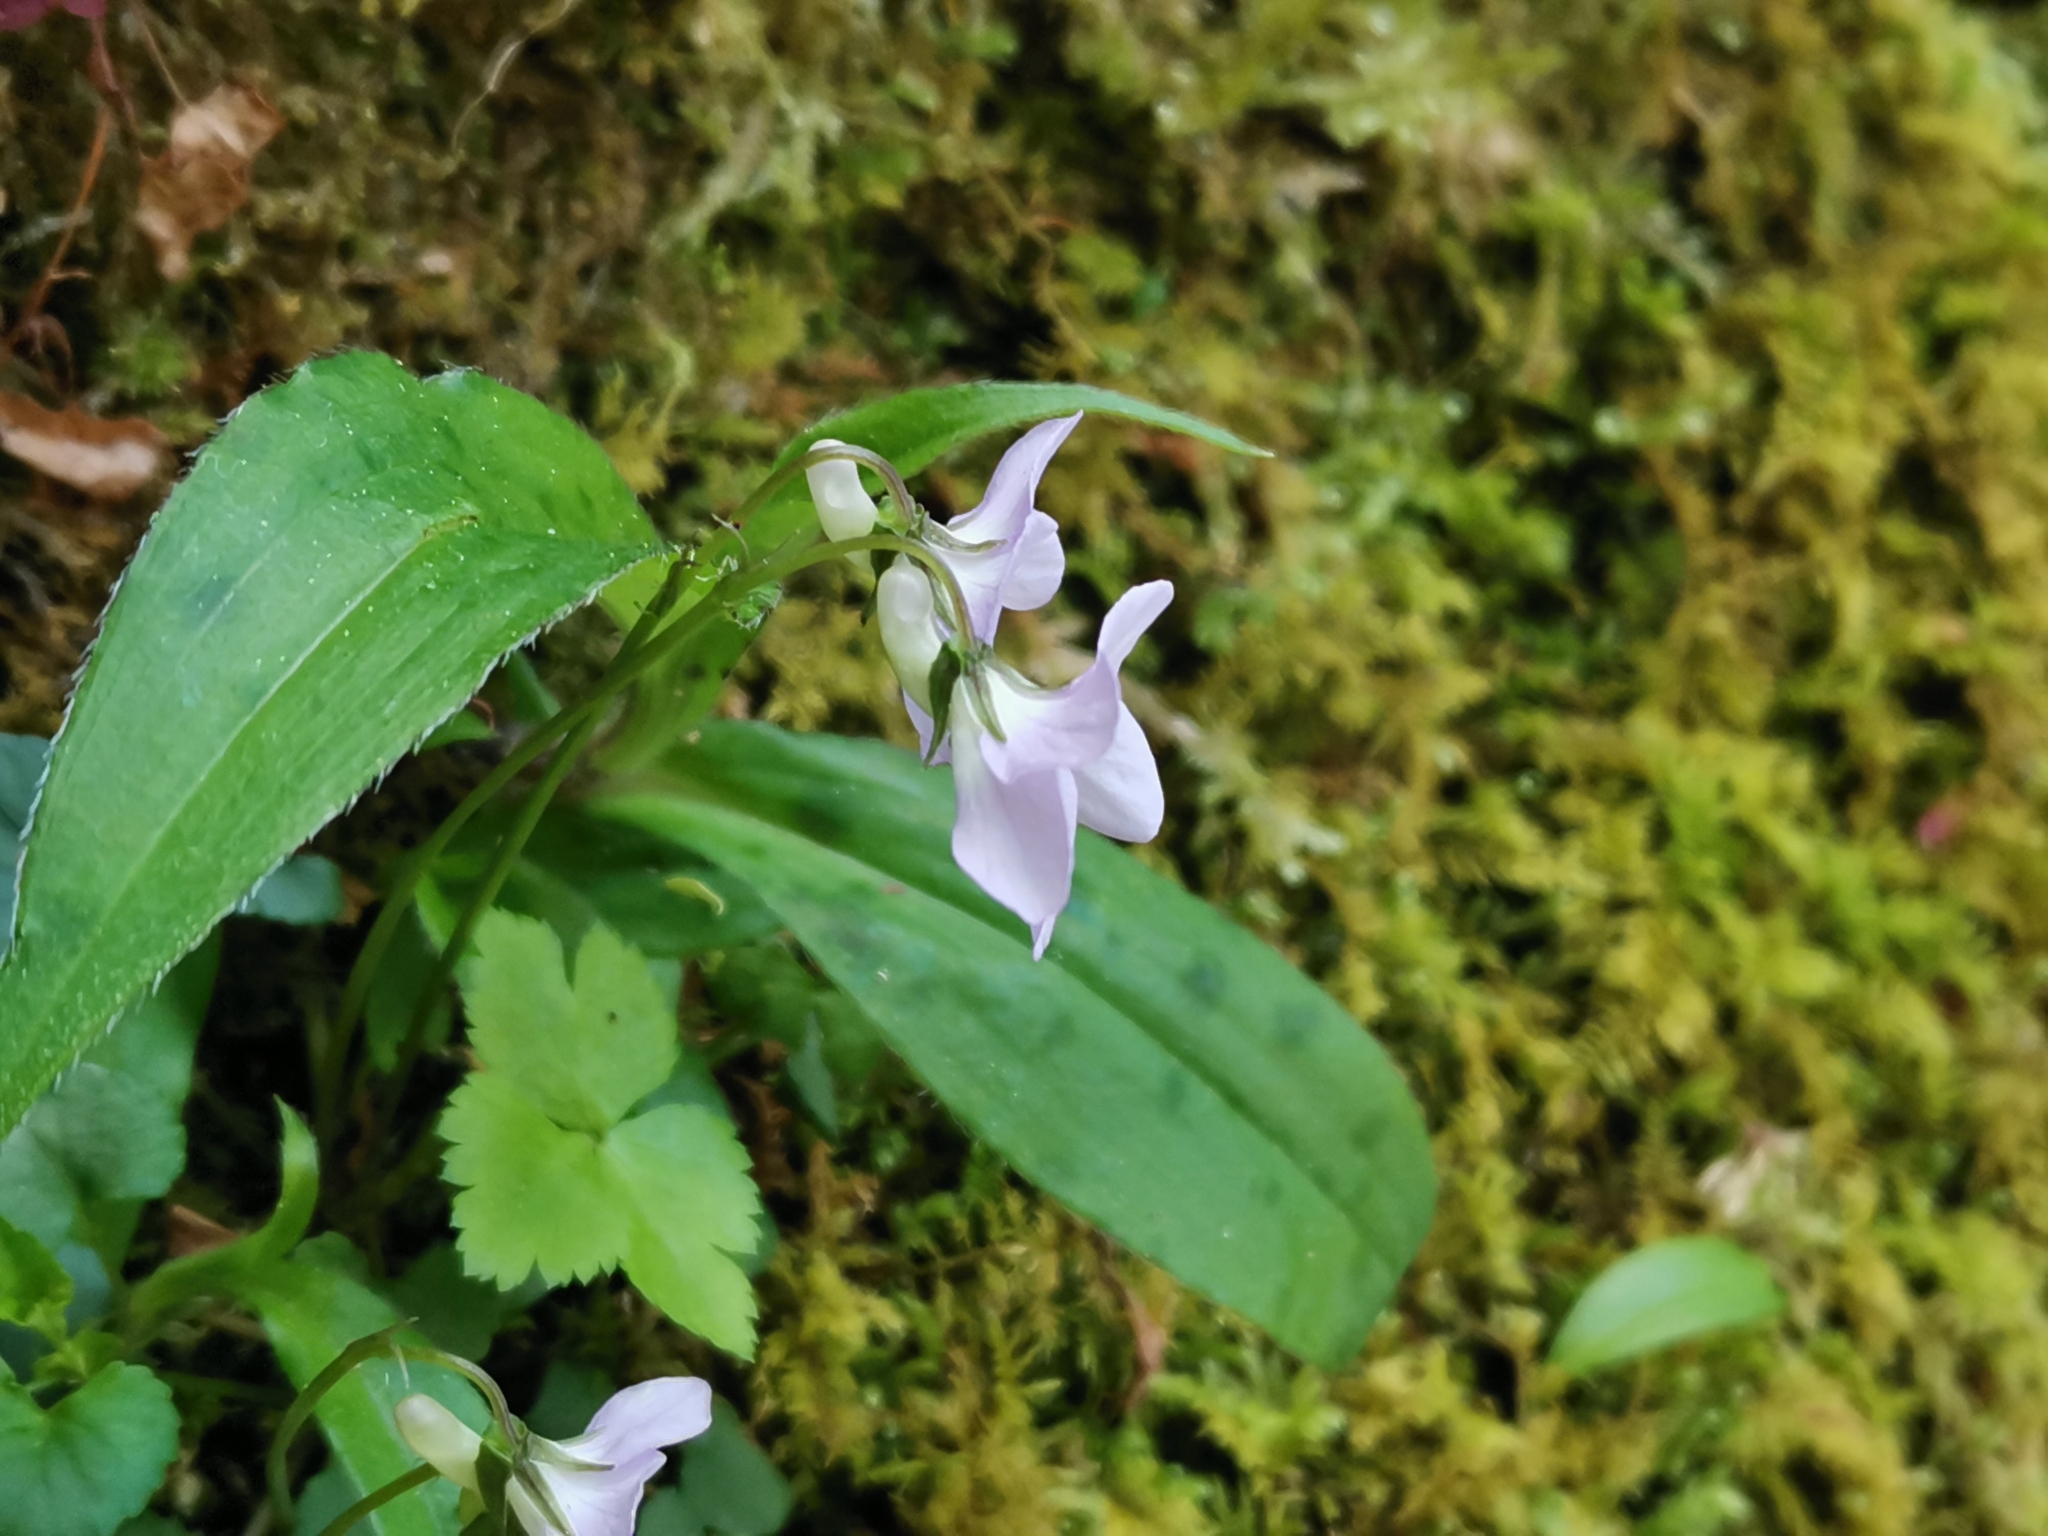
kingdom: Plantae
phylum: Tracheophyta
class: Magnoliopsida
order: Malpighiales
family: Violaceae
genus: Viola
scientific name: Viola grypoceras
